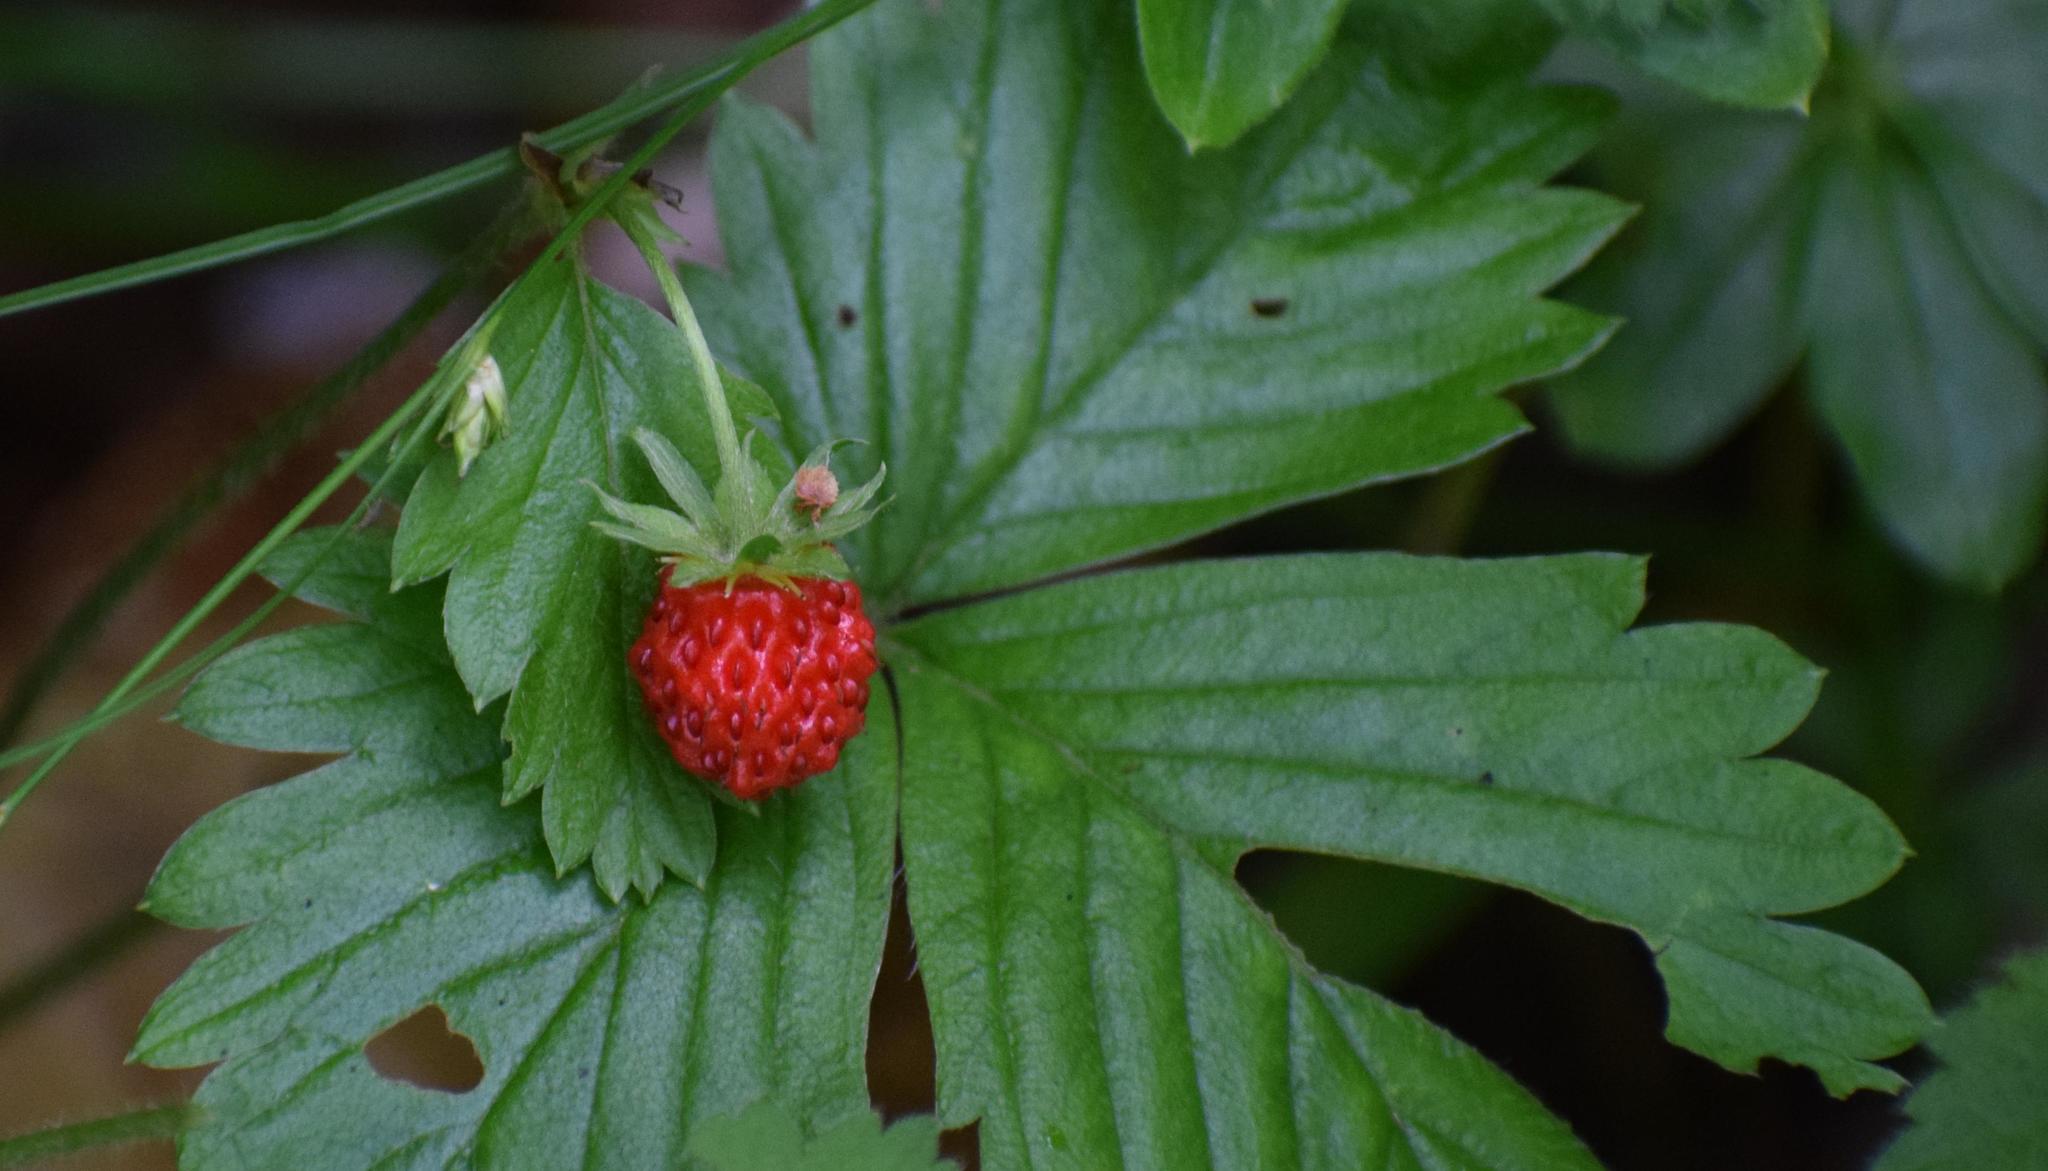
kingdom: Plantae
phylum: Tracheophyta
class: Magnoliopsida
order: Rosales
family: Rosaceae
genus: Fragaria
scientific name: Fragaria vesca
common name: Wild strawberry
